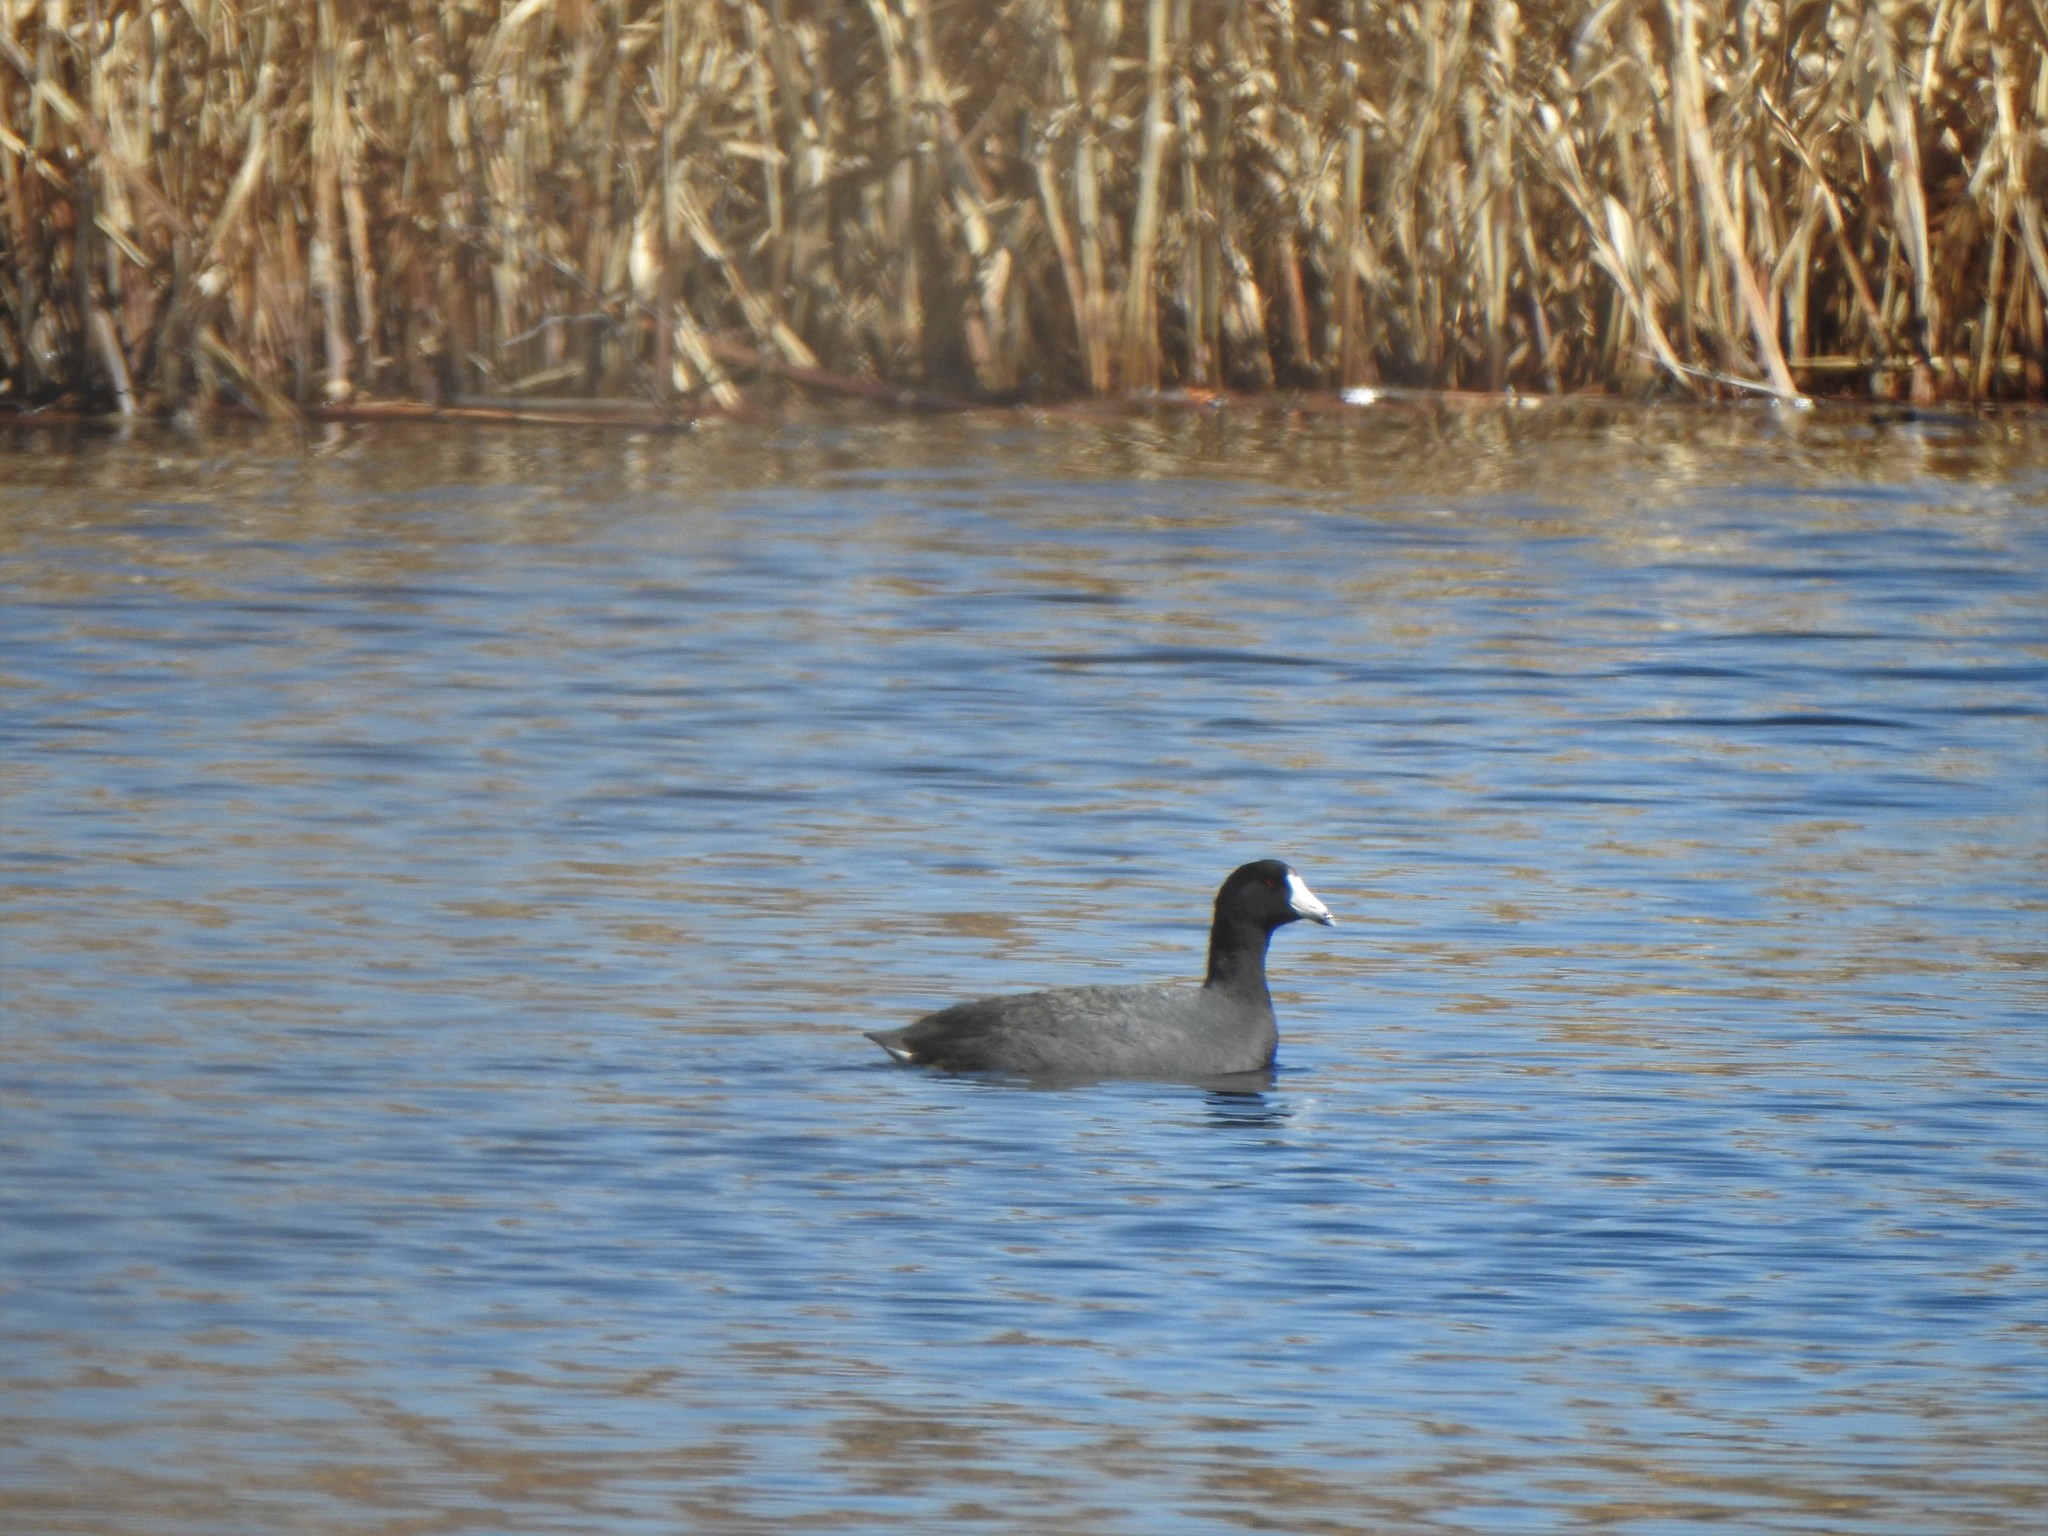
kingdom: Animalia
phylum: Chordata
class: Aves
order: Gruiformes
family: Rallidae
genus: Fulica
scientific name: Fulica americana
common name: American coot
